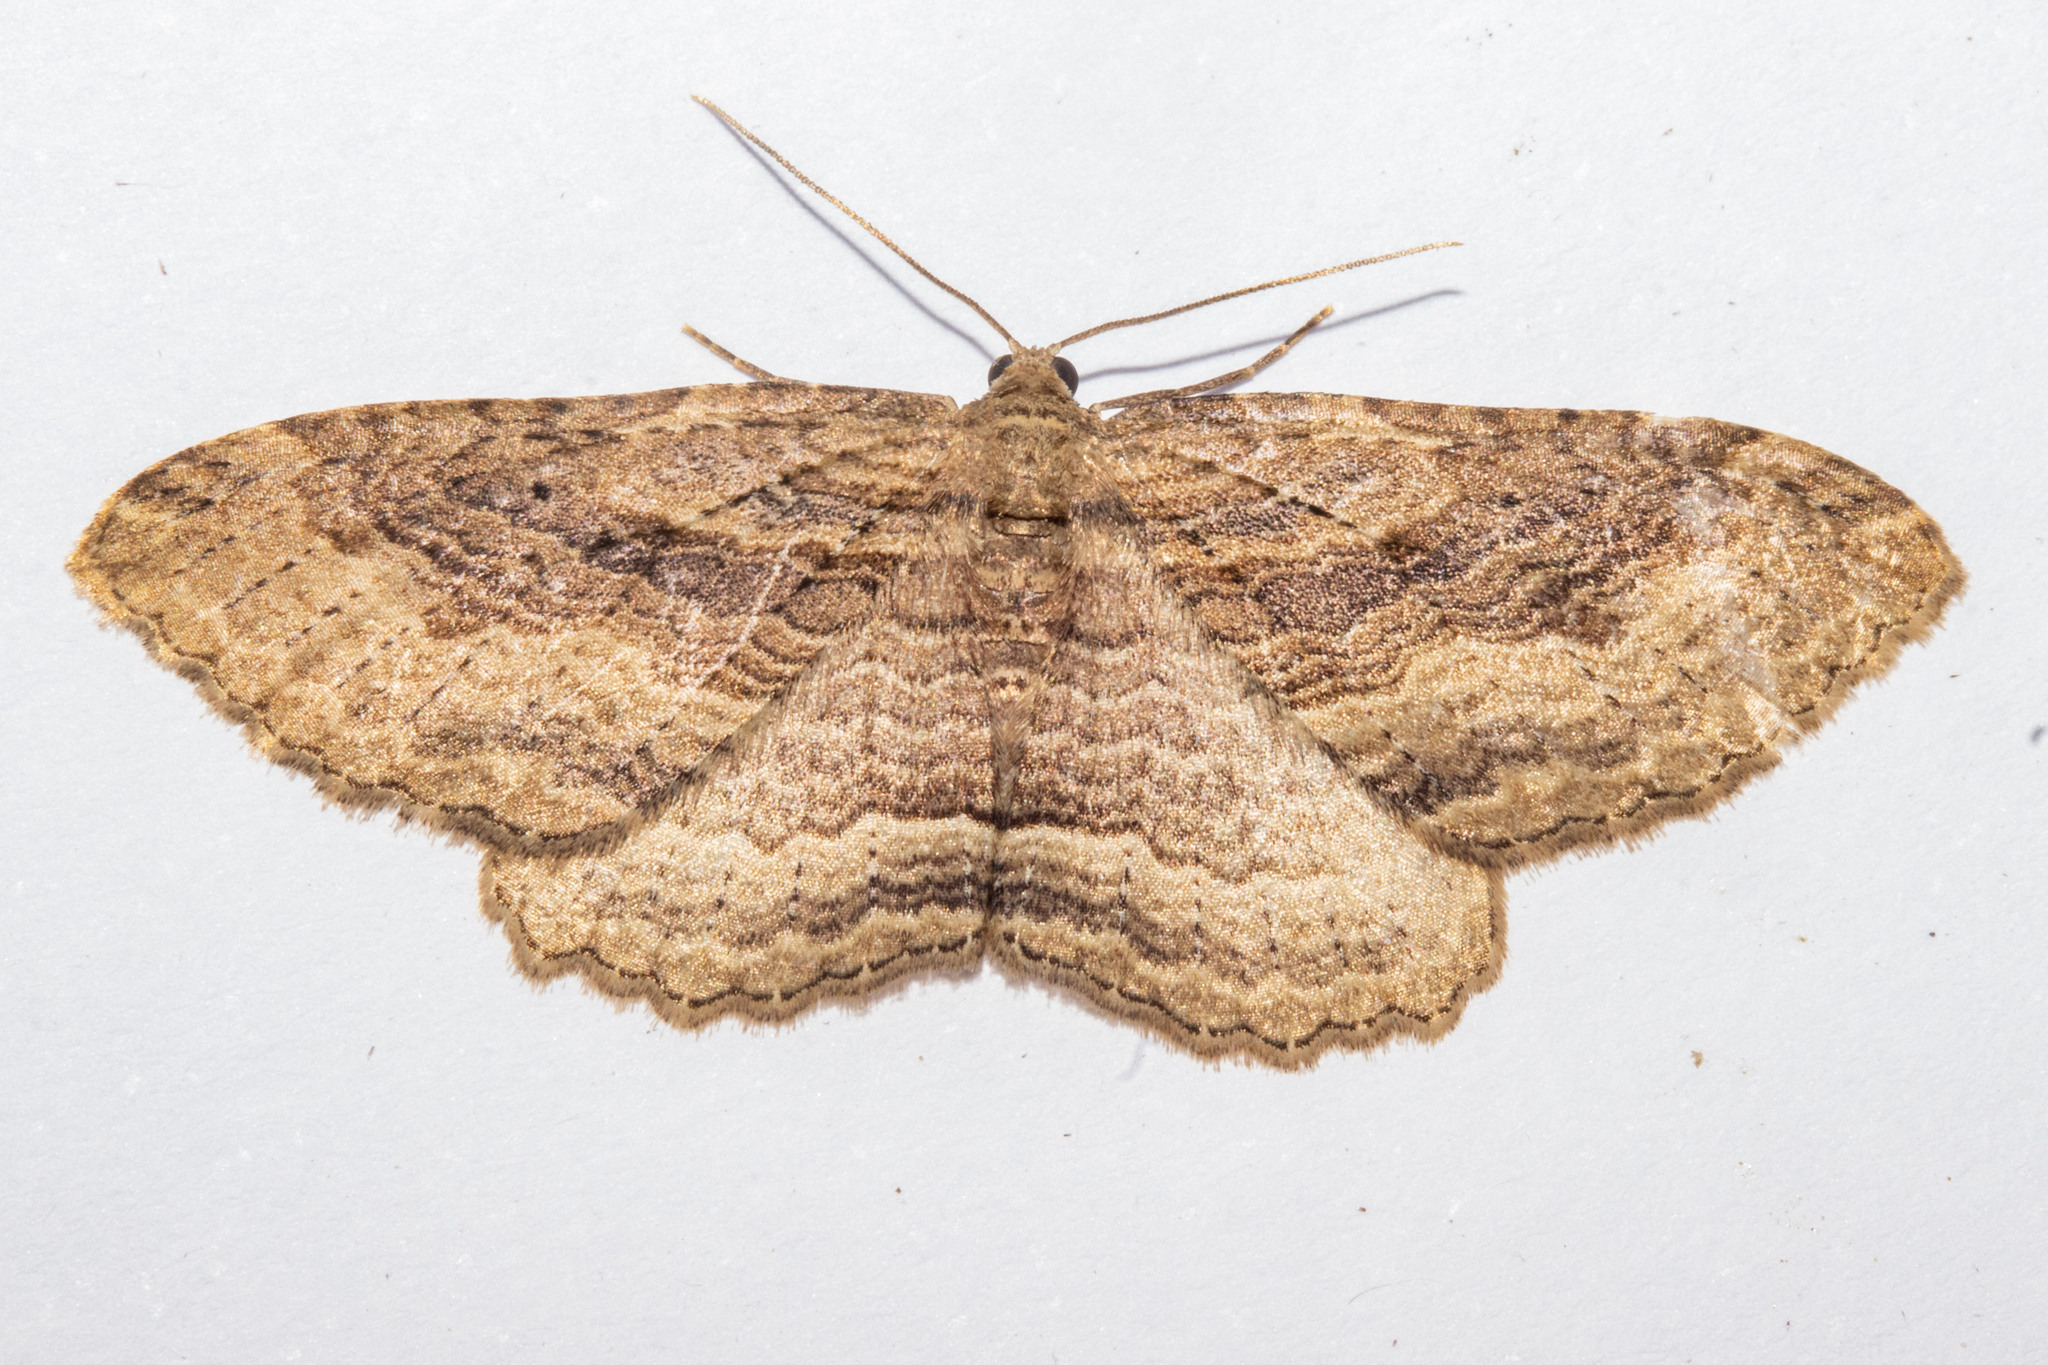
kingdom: Animalia
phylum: Arthropoda
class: Insecta
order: Lepidoptera
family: Geometridae
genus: Austrocidaria
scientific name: Austrocidaria gobiata
